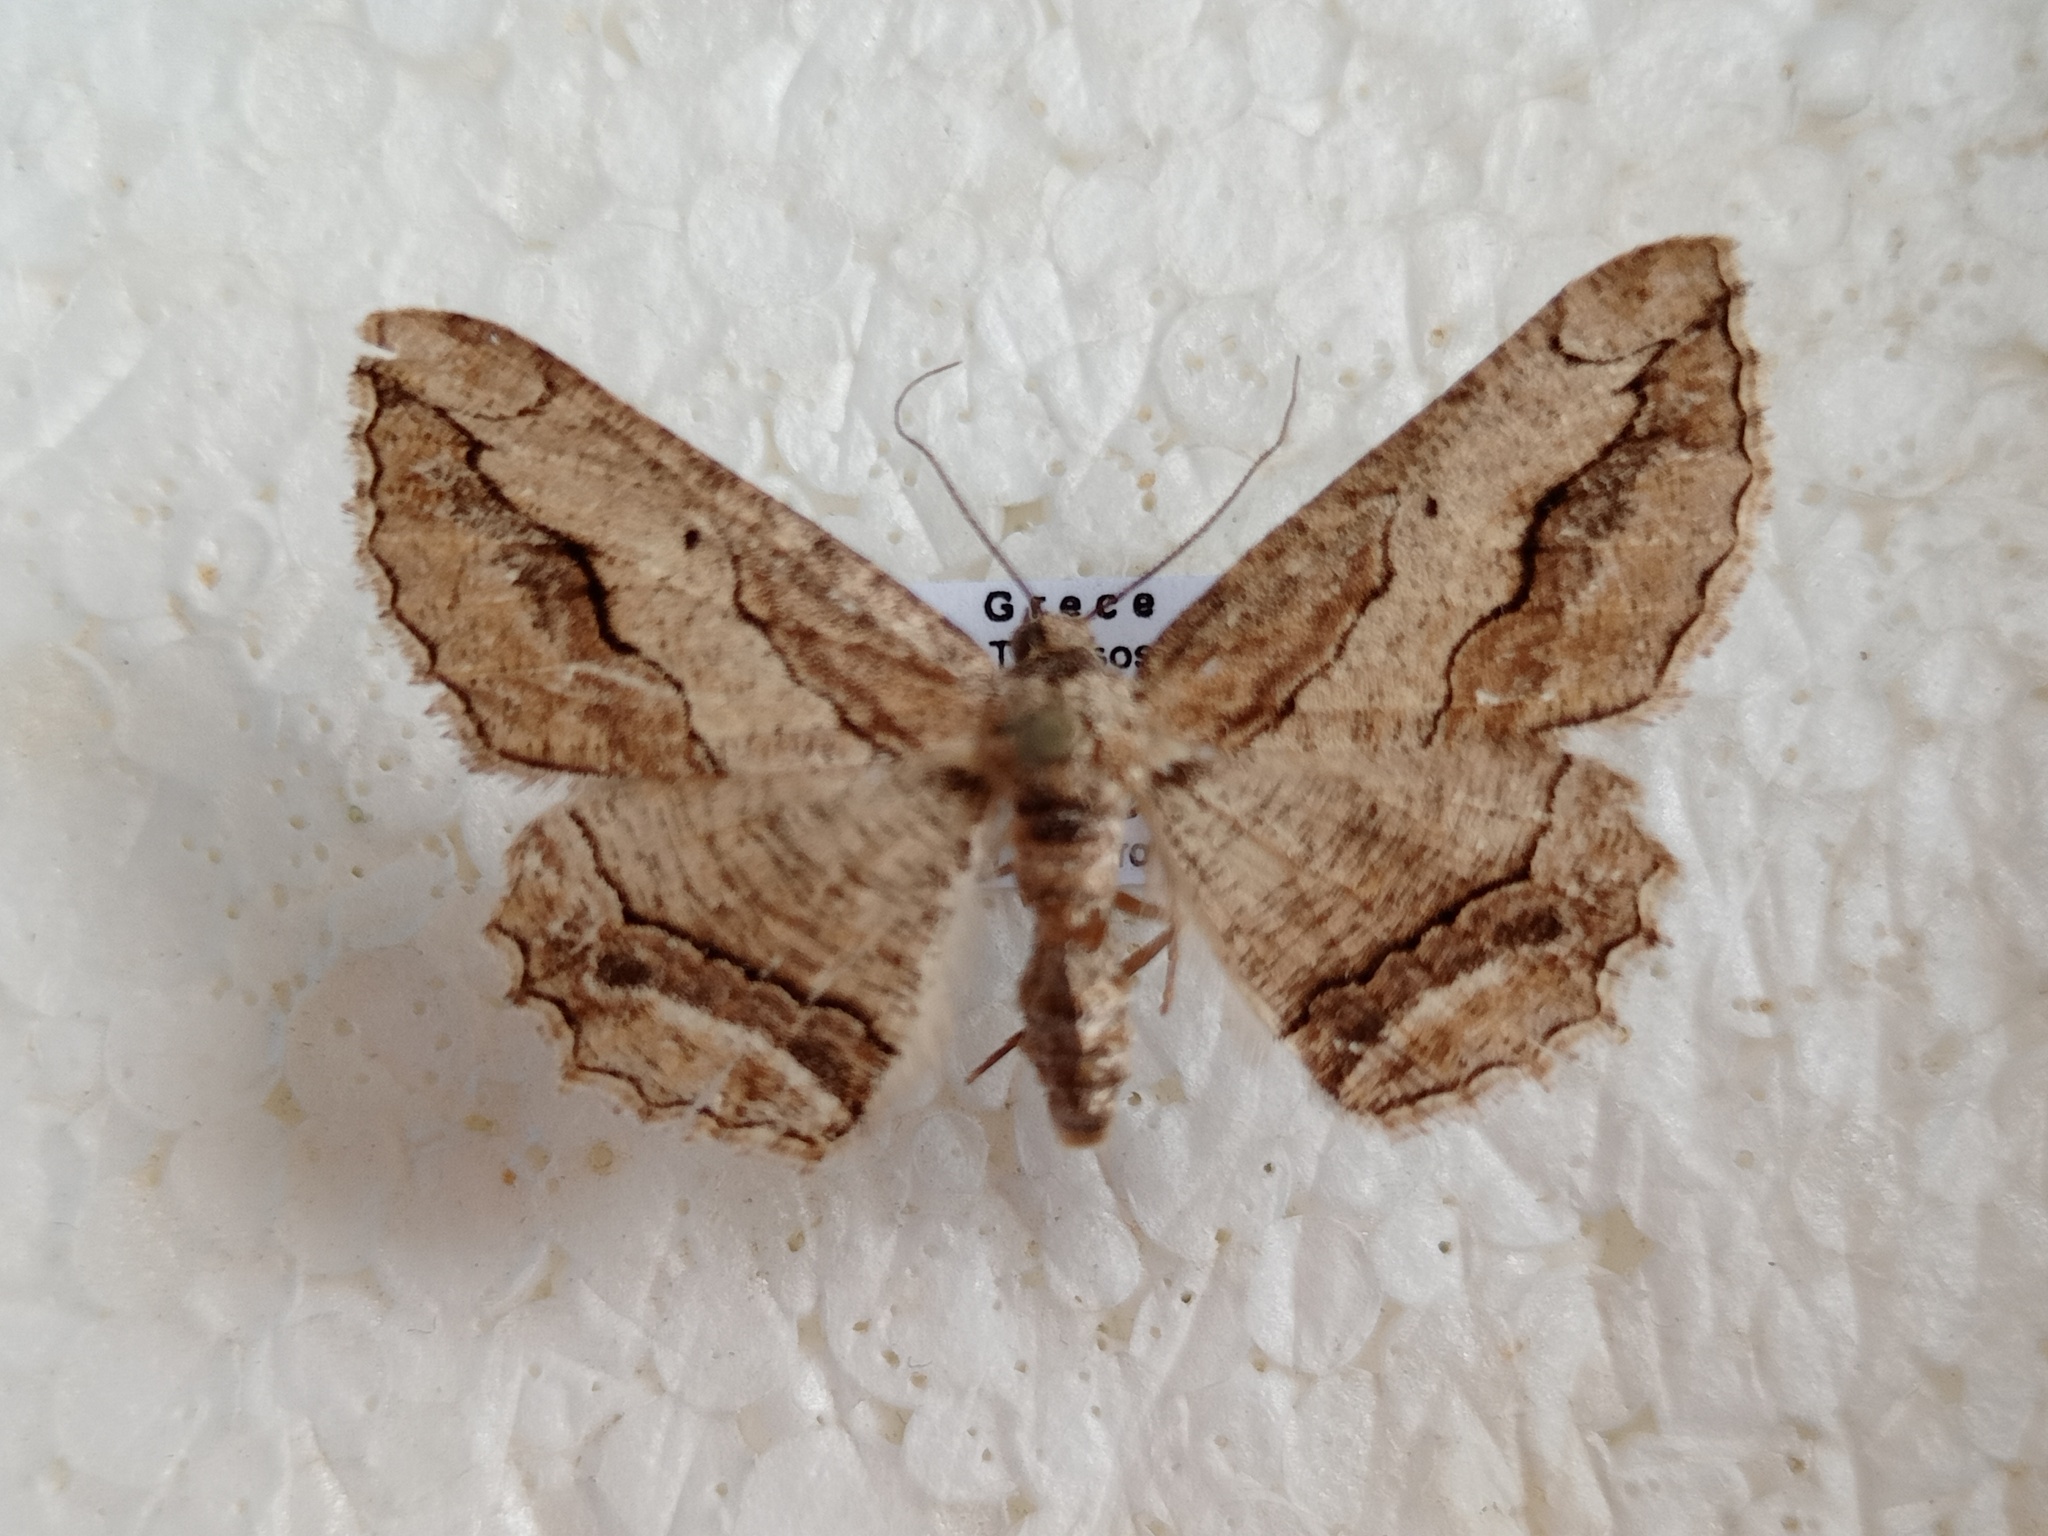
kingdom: Animalia
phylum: Arthropoda
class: Insecta
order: Lepidoptera
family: Geometridae
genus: Menophra
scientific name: Menophra berenicidaria
